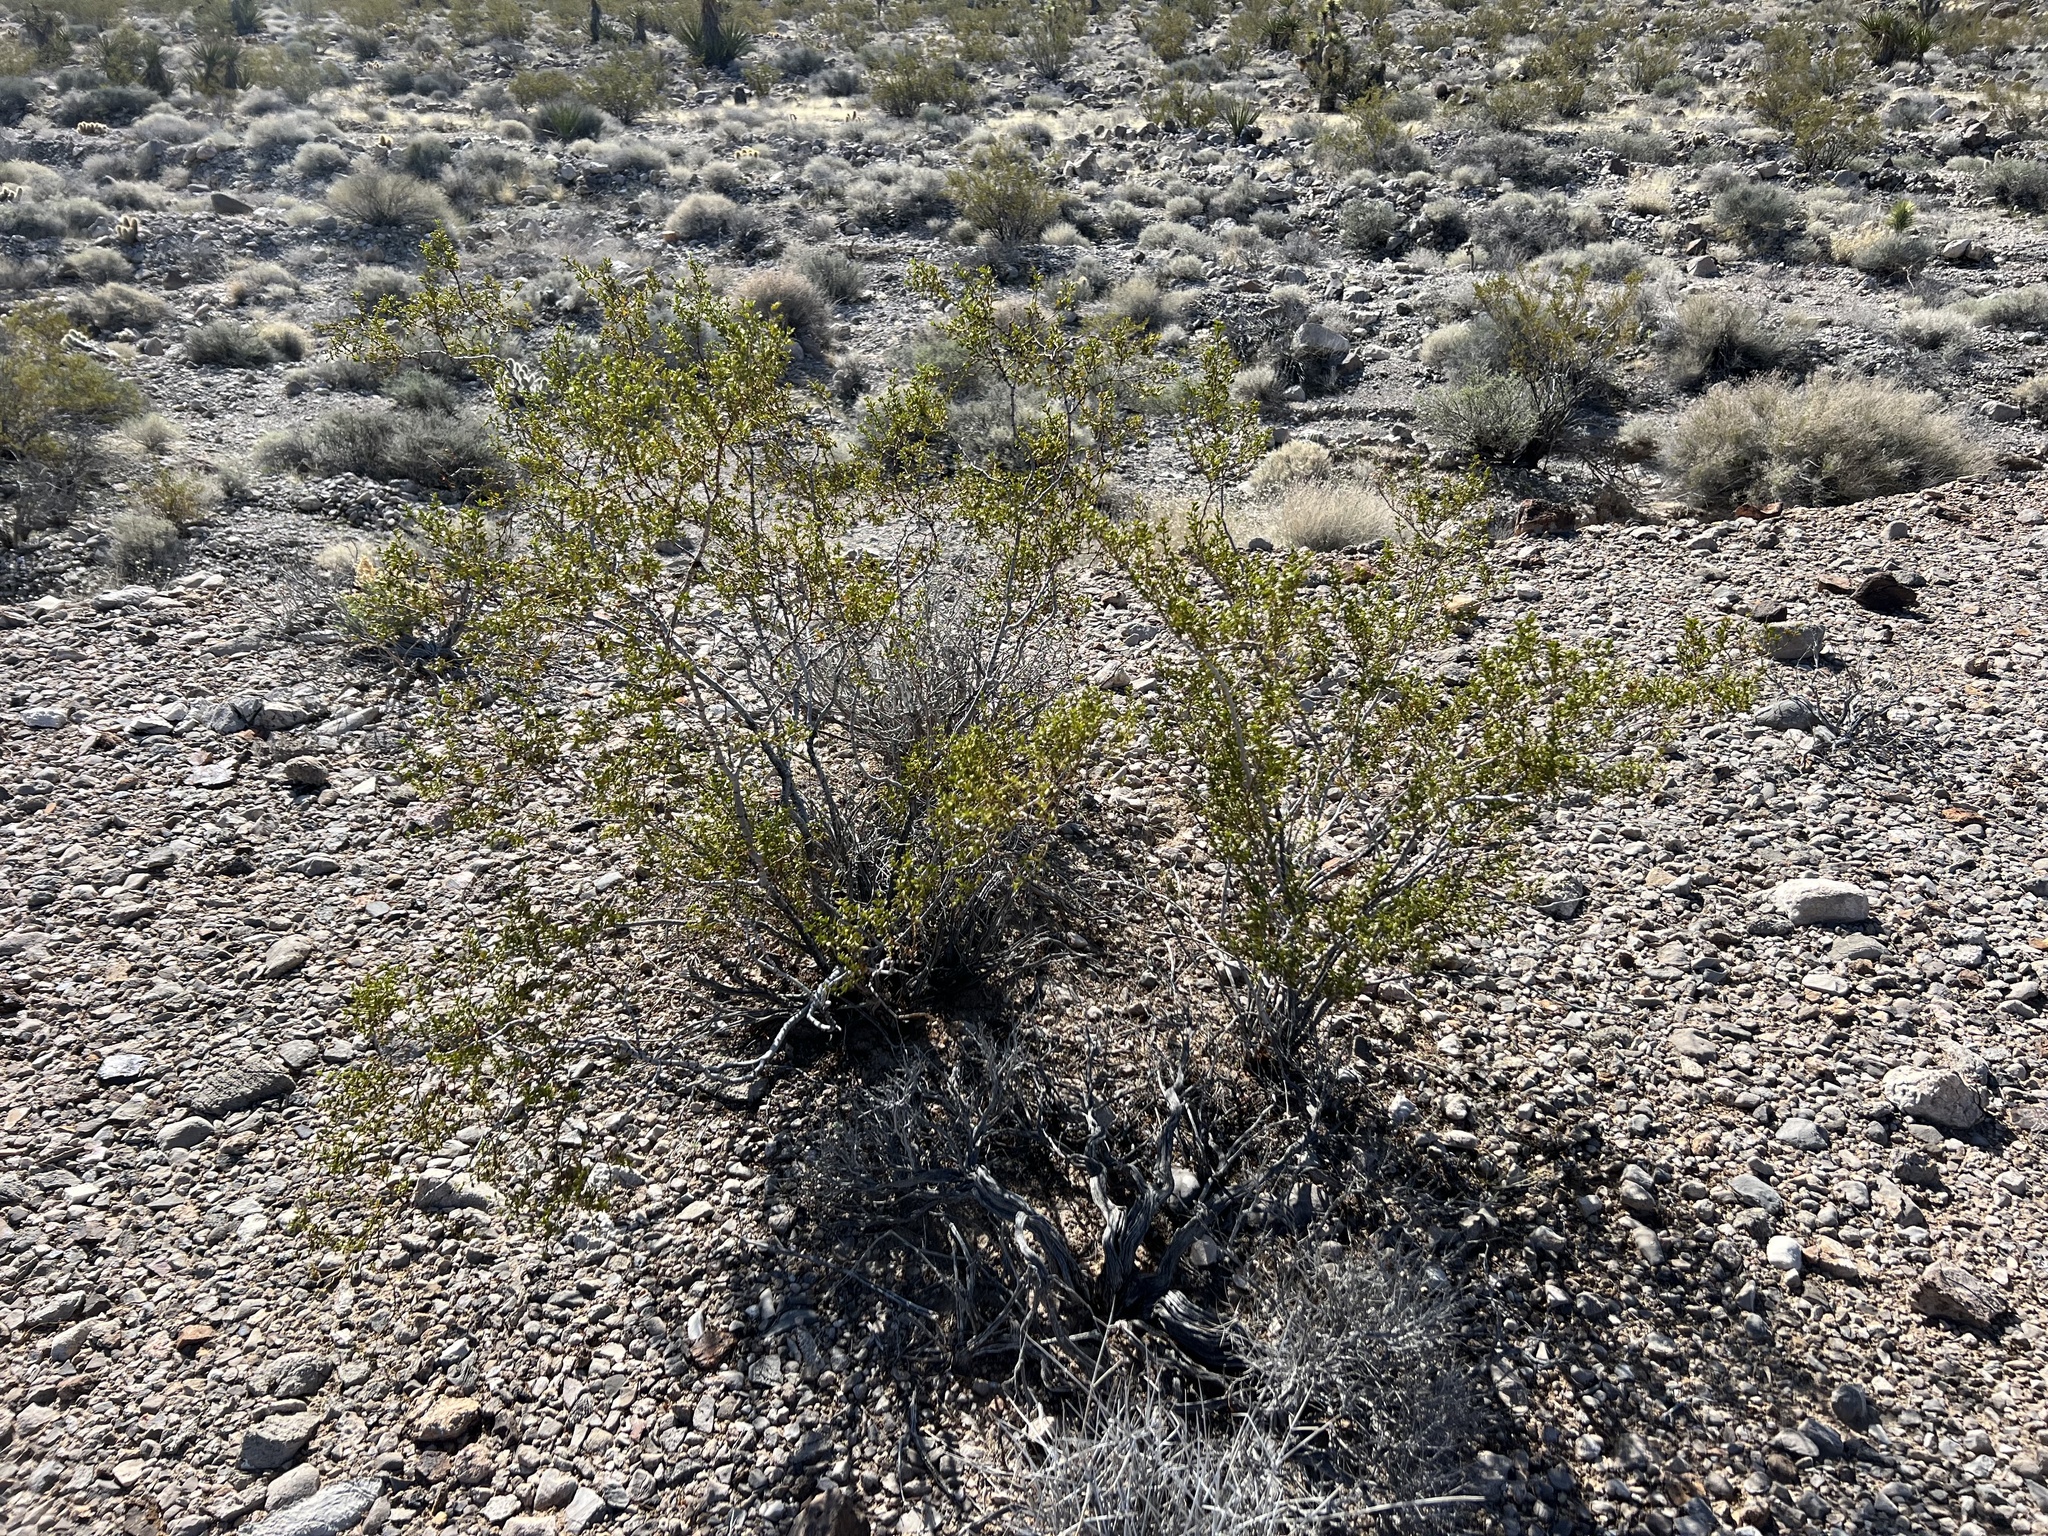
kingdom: Plantae
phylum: Tracheophyta
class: Magnoliopsida
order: Zygophyllales
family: Zygophyllaceae
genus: Larrea
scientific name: Larrea tridentata
